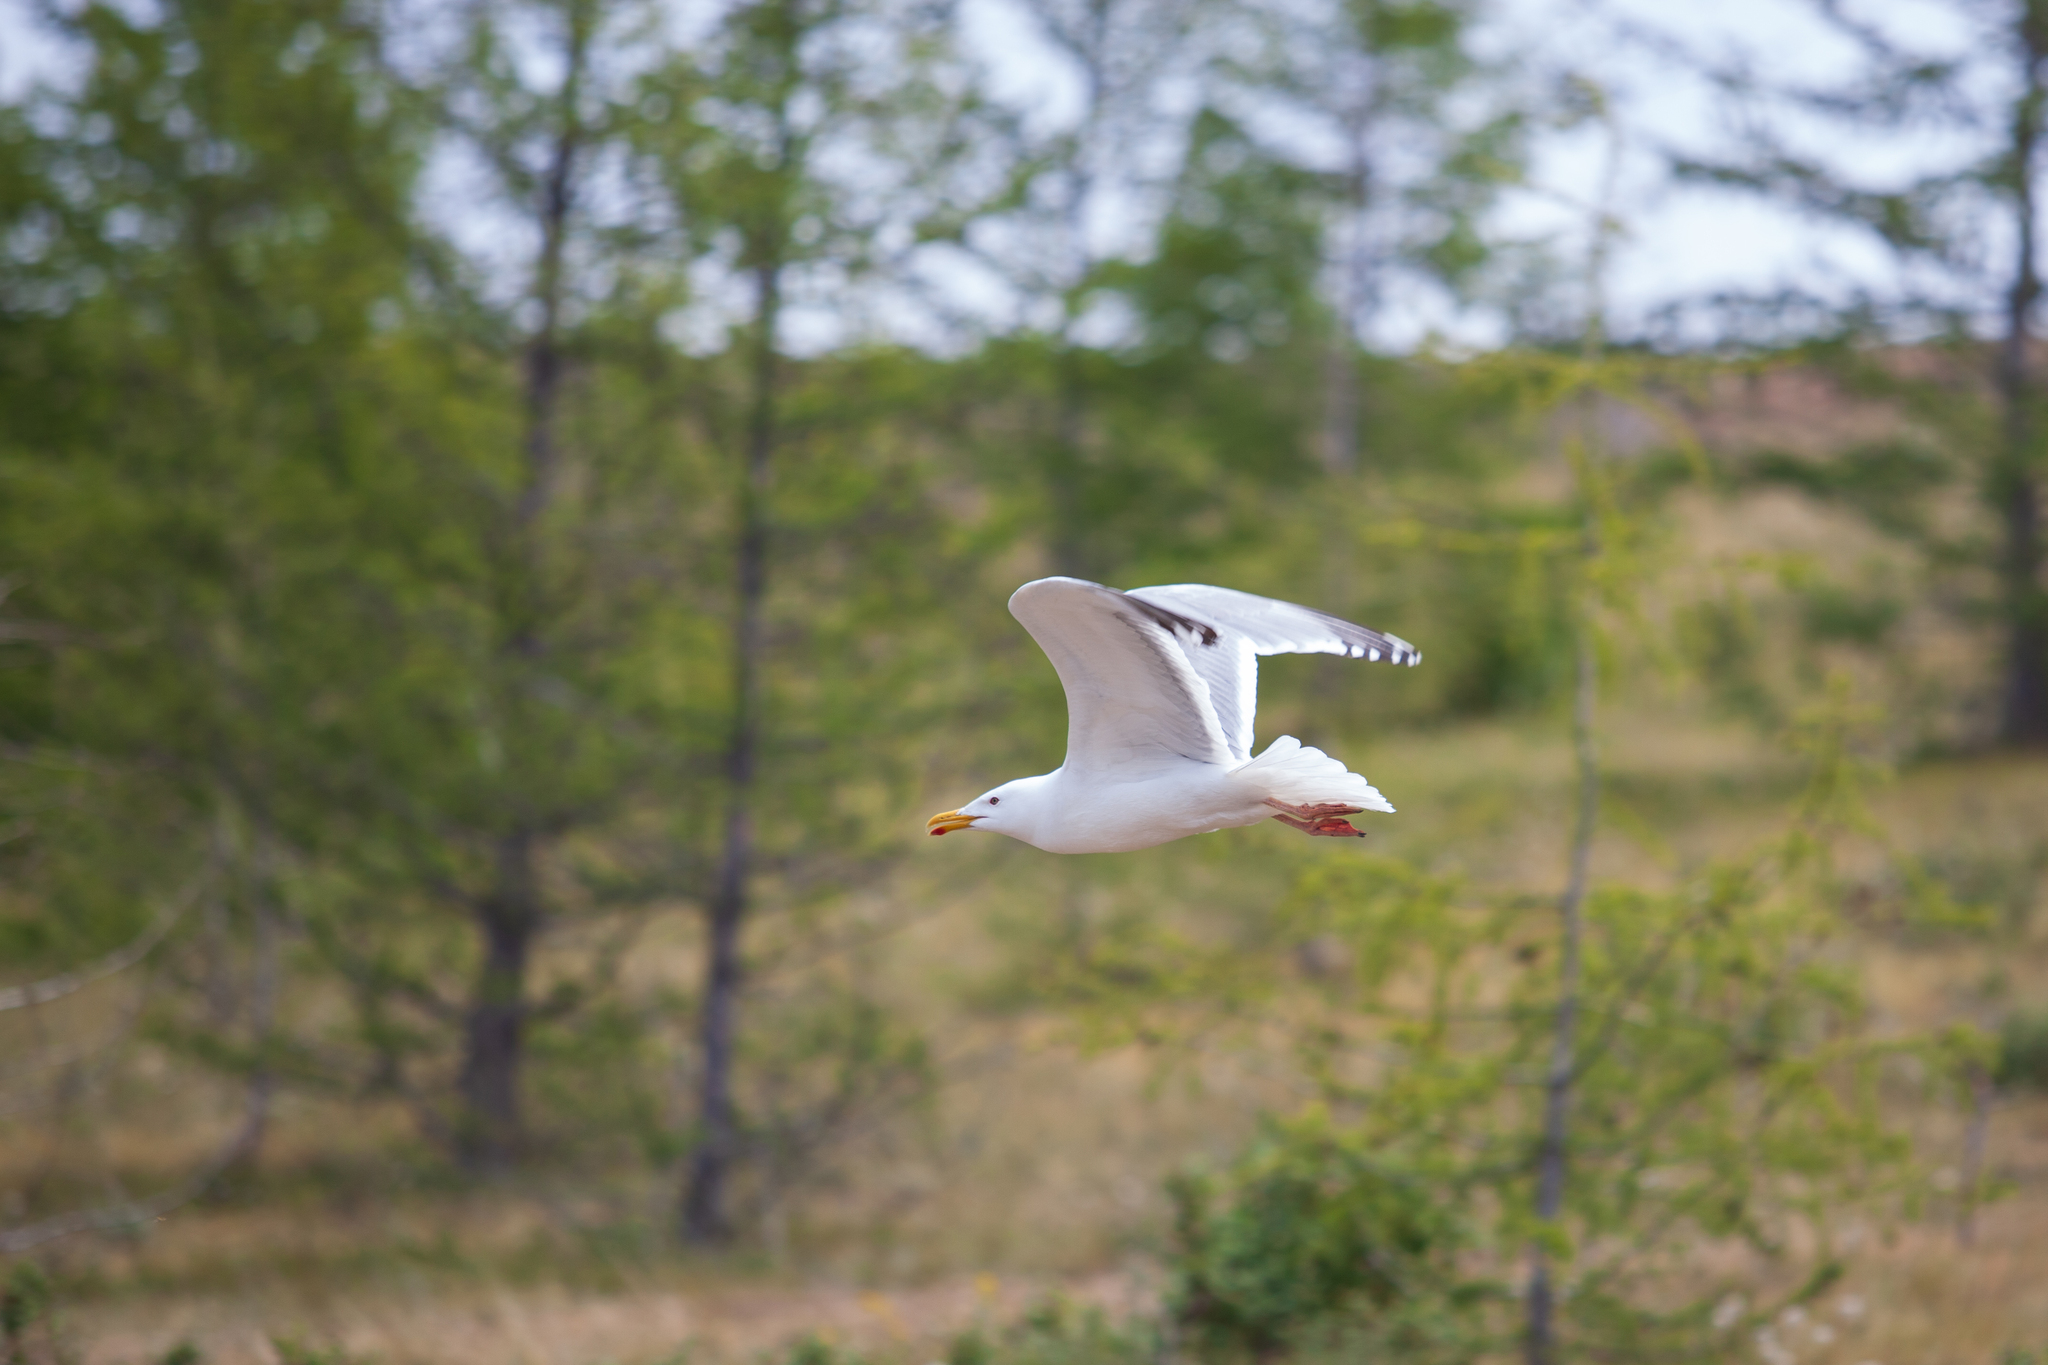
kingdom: Animalia
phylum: Chordata
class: Aves
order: Charadriiformes
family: Laridae
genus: Larus
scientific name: Larus argentatus
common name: Herring gull
